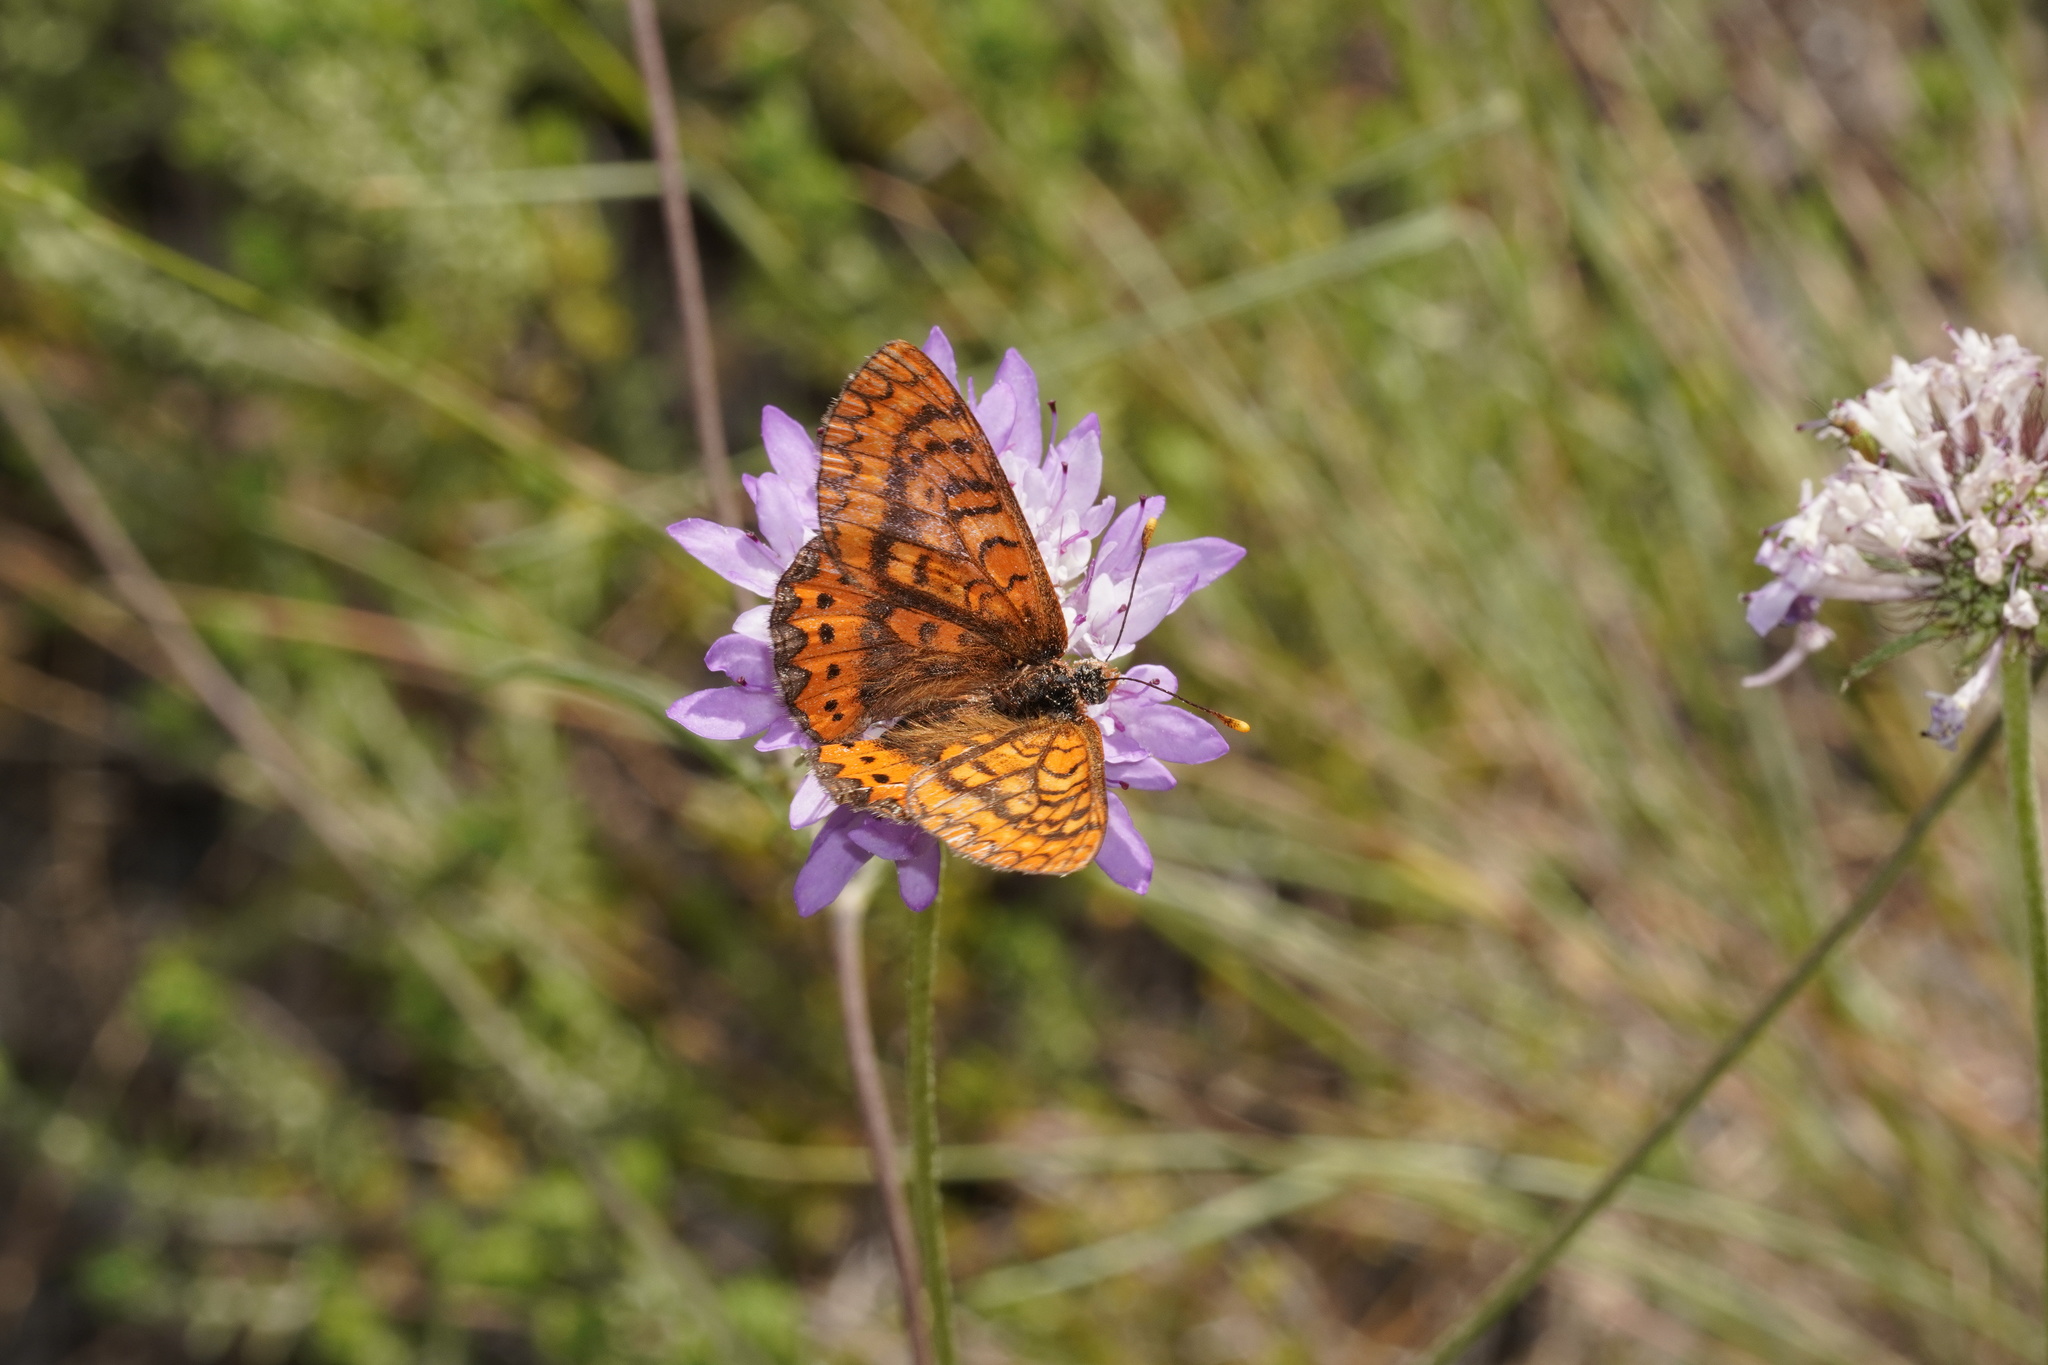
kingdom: Animalia
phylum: Arthropoda
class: Insecta
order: Lepidoptera
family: Nymphalidae
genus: Euphydryas
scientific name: Euphydryas aurinia
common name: Marsh fritillary
